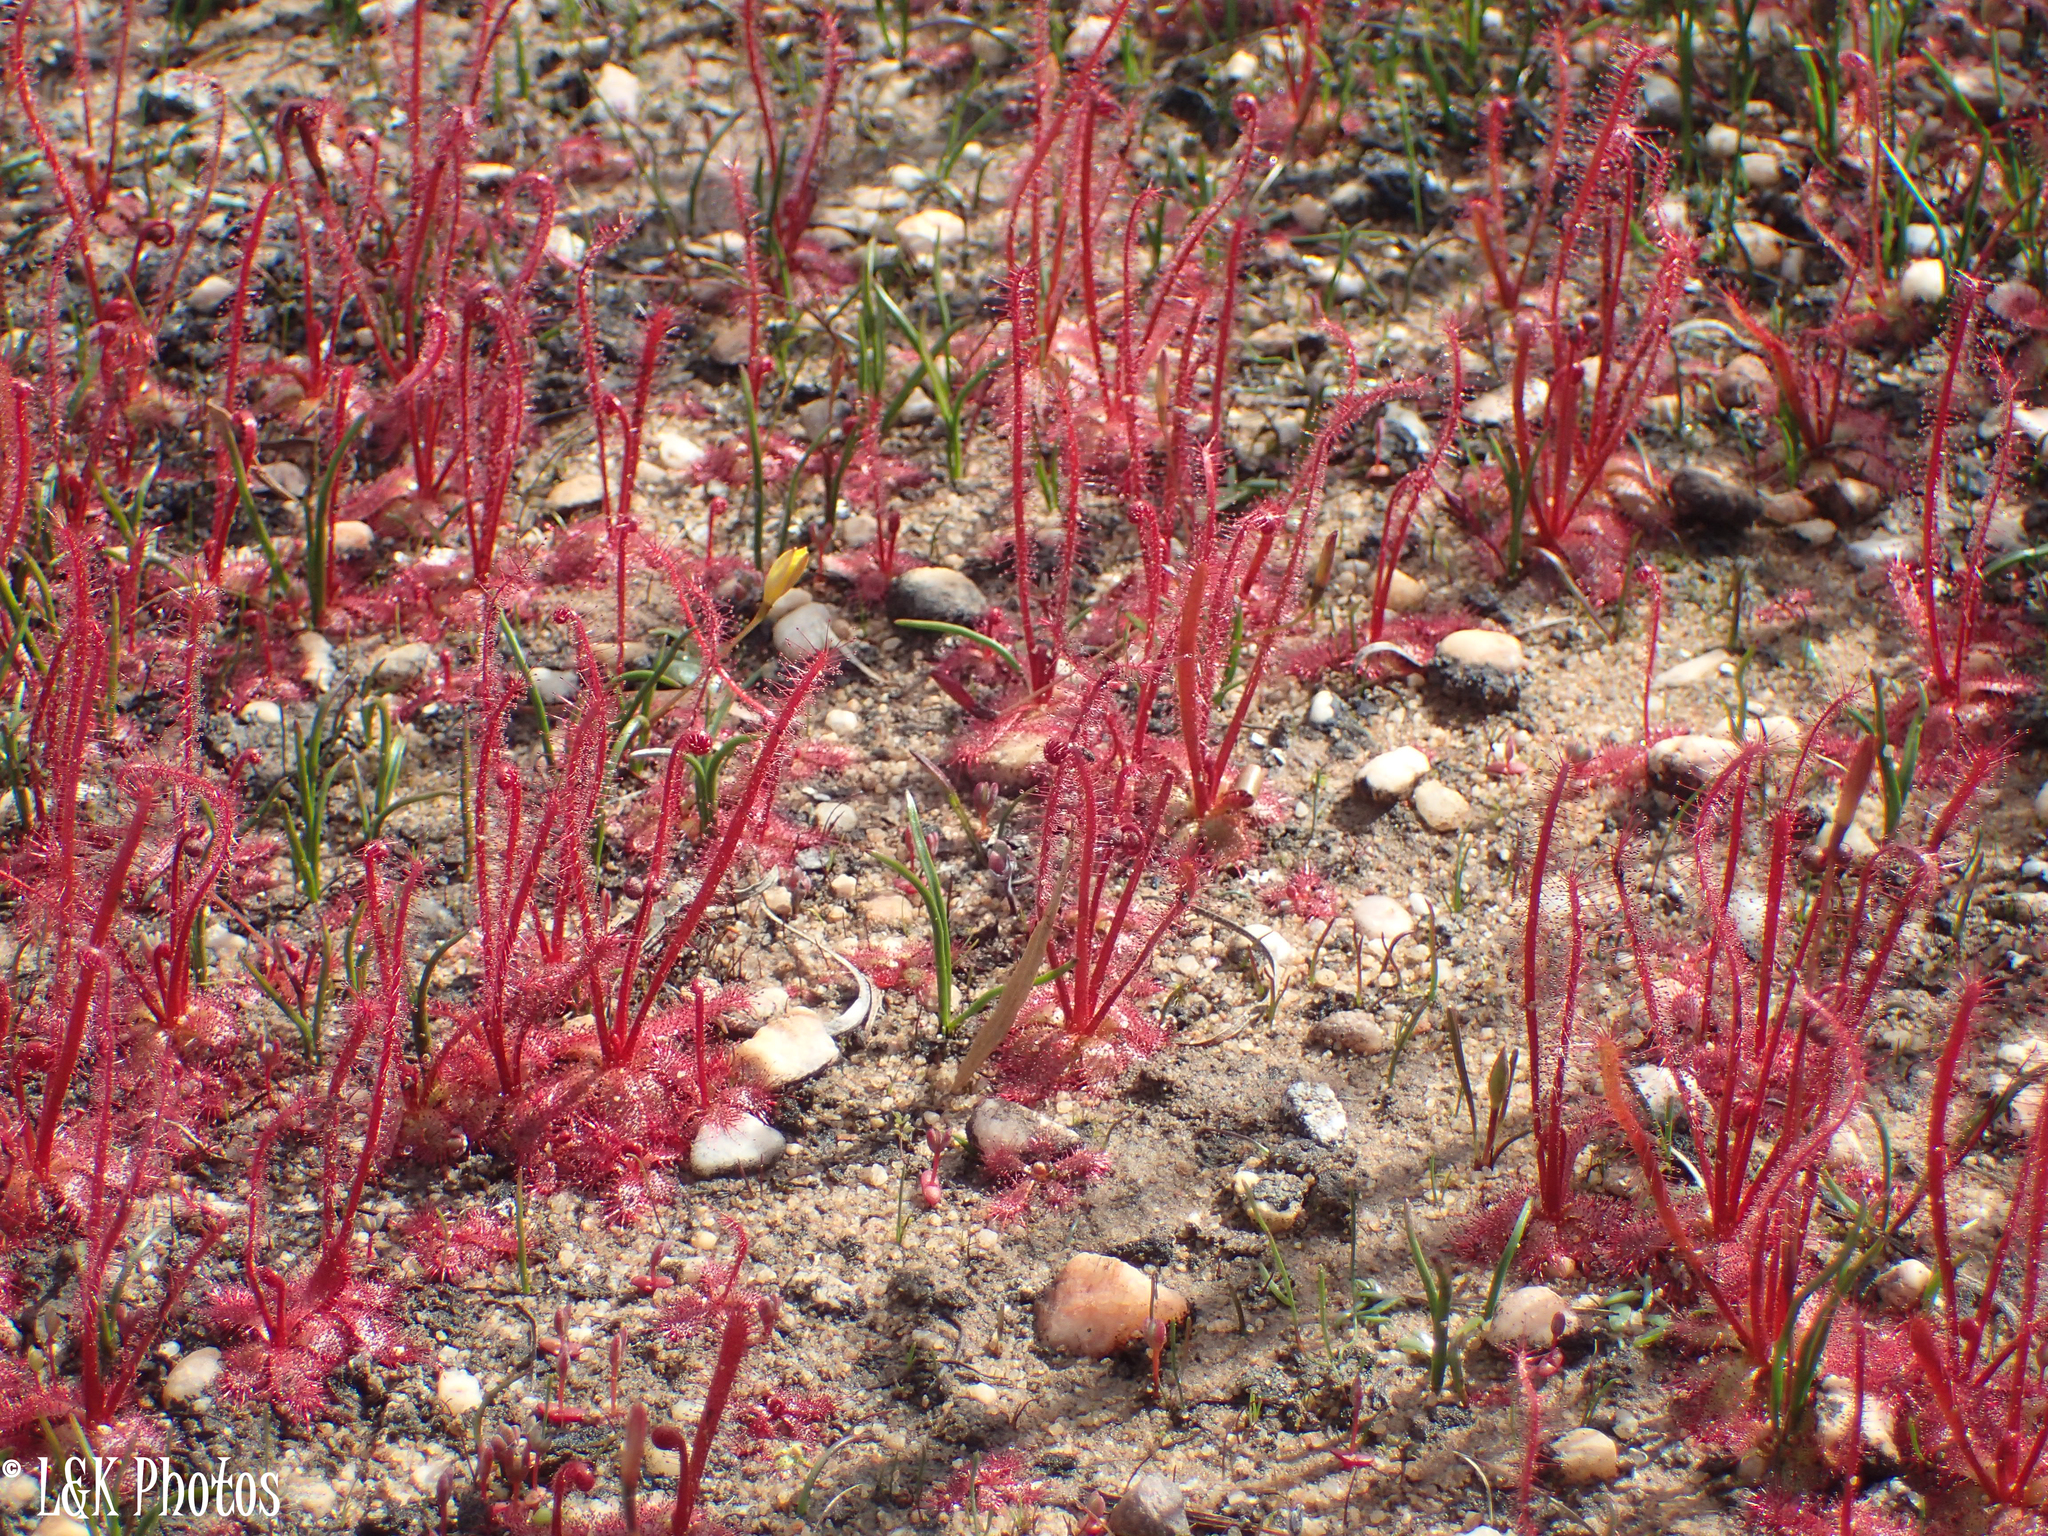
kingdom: Plantae
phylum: Tracheophyta
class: Magnoliopsida
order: Caryophyllales
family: Droseraceae
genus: Drosera
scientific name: Drosera alba
